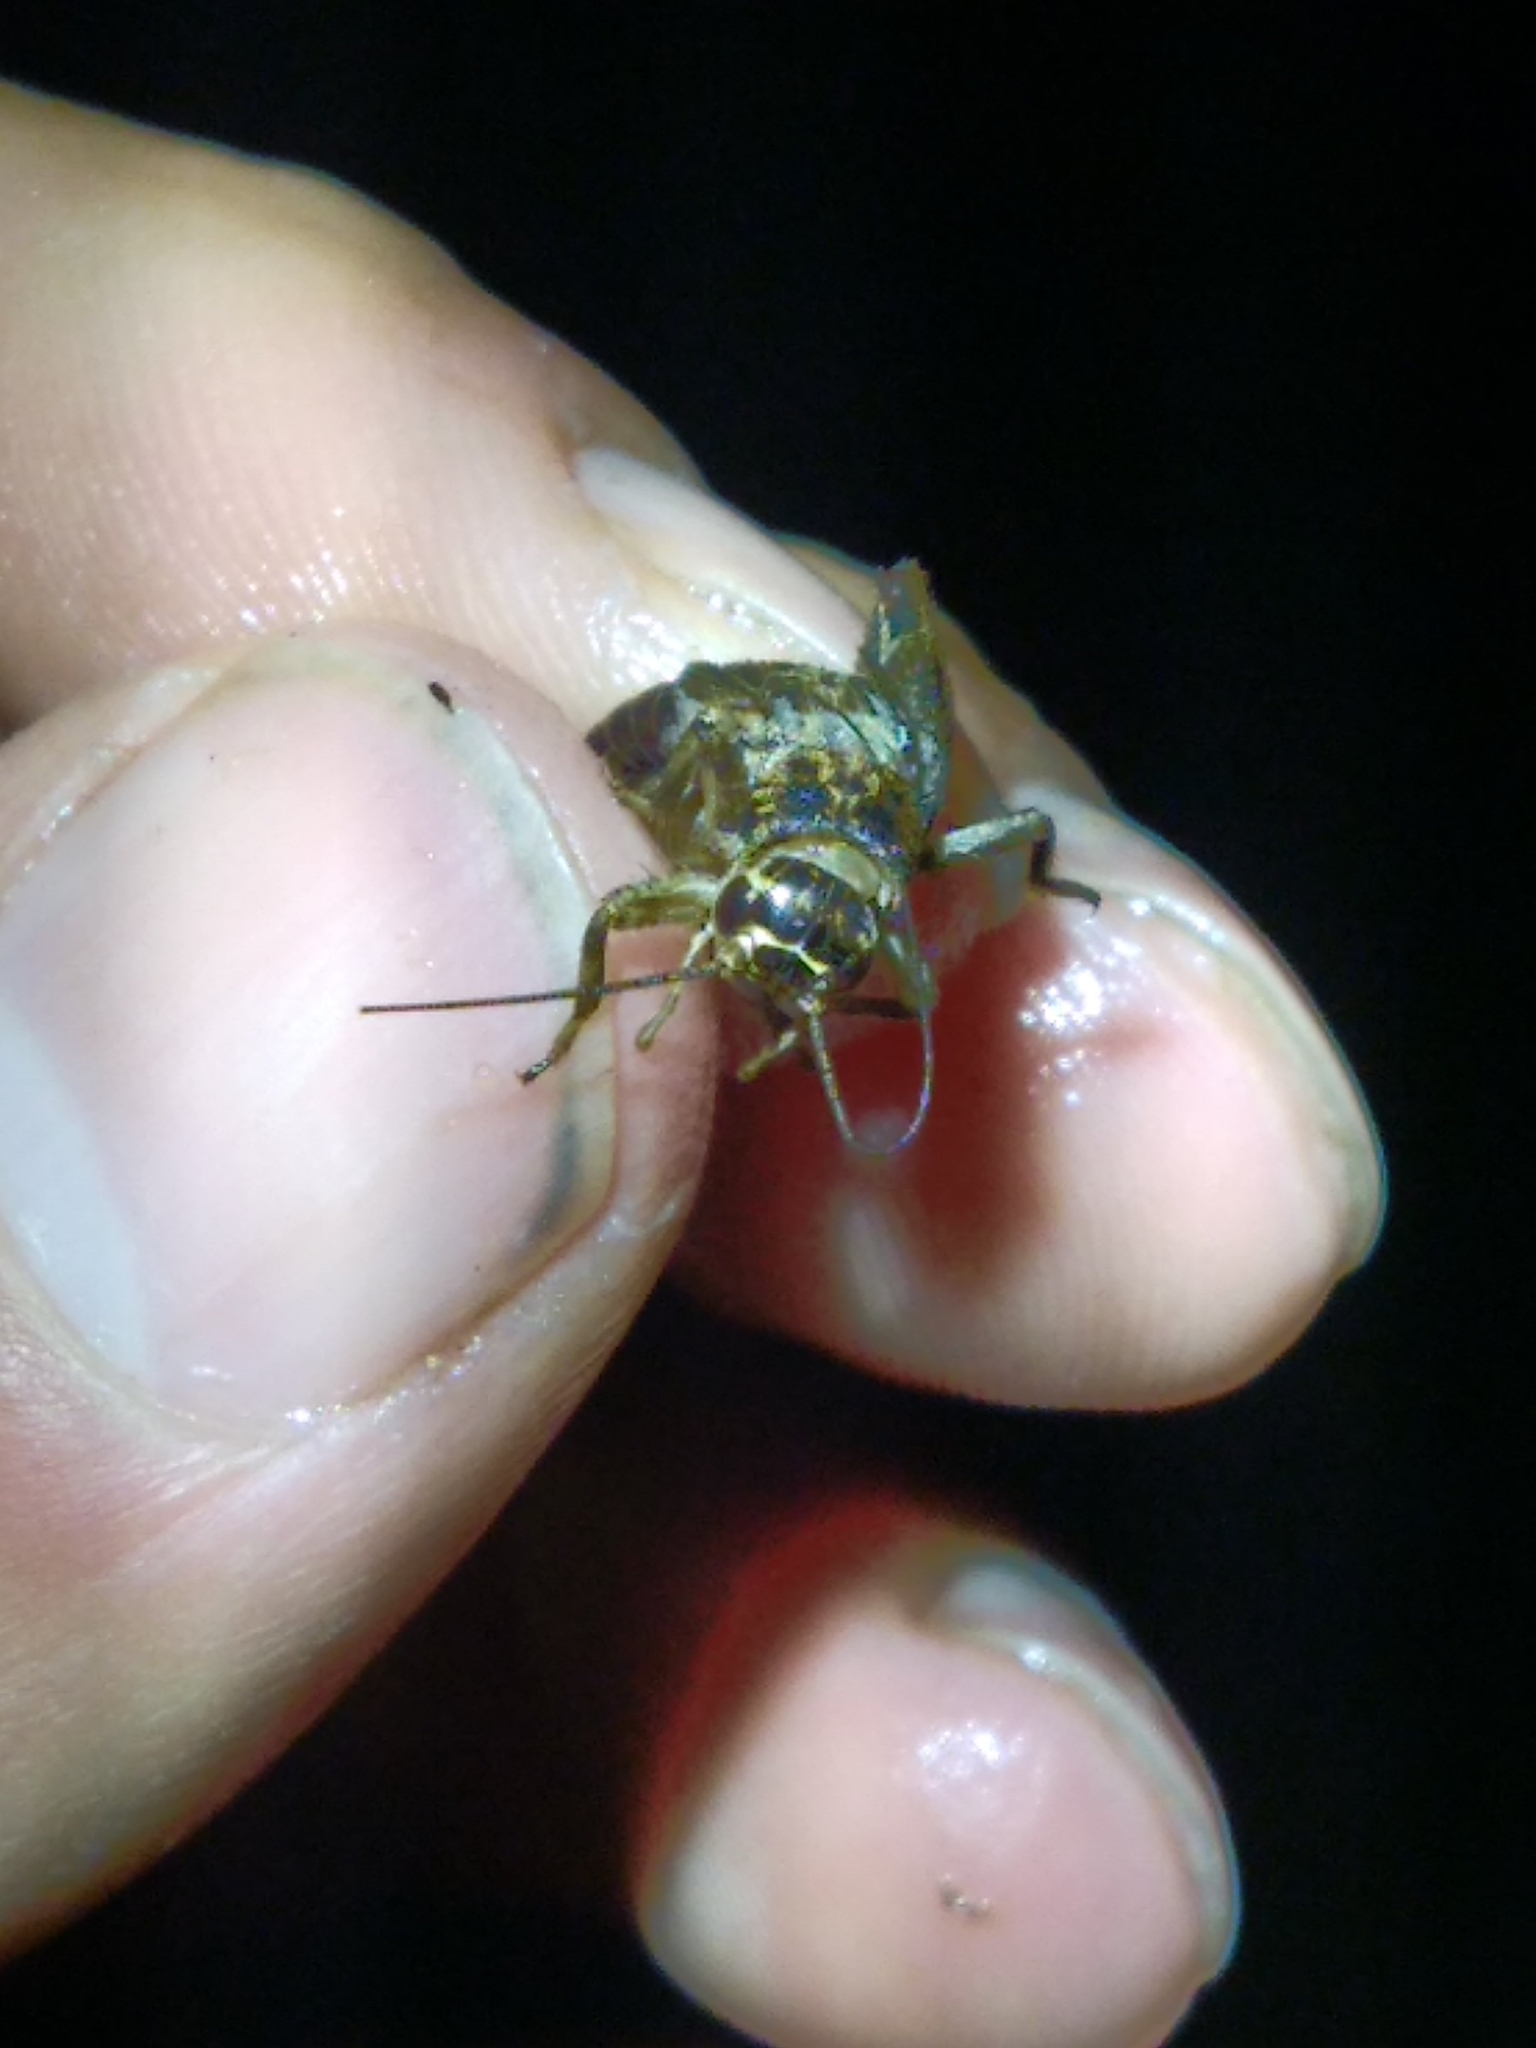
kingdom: Animalia
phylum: Arthropoda
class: Insecta
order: Orthoptera
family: Gryllidae
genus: Eumodicogryllus
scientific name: Eumodicogryllus bordigalensis
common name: Bordeaux cricket
